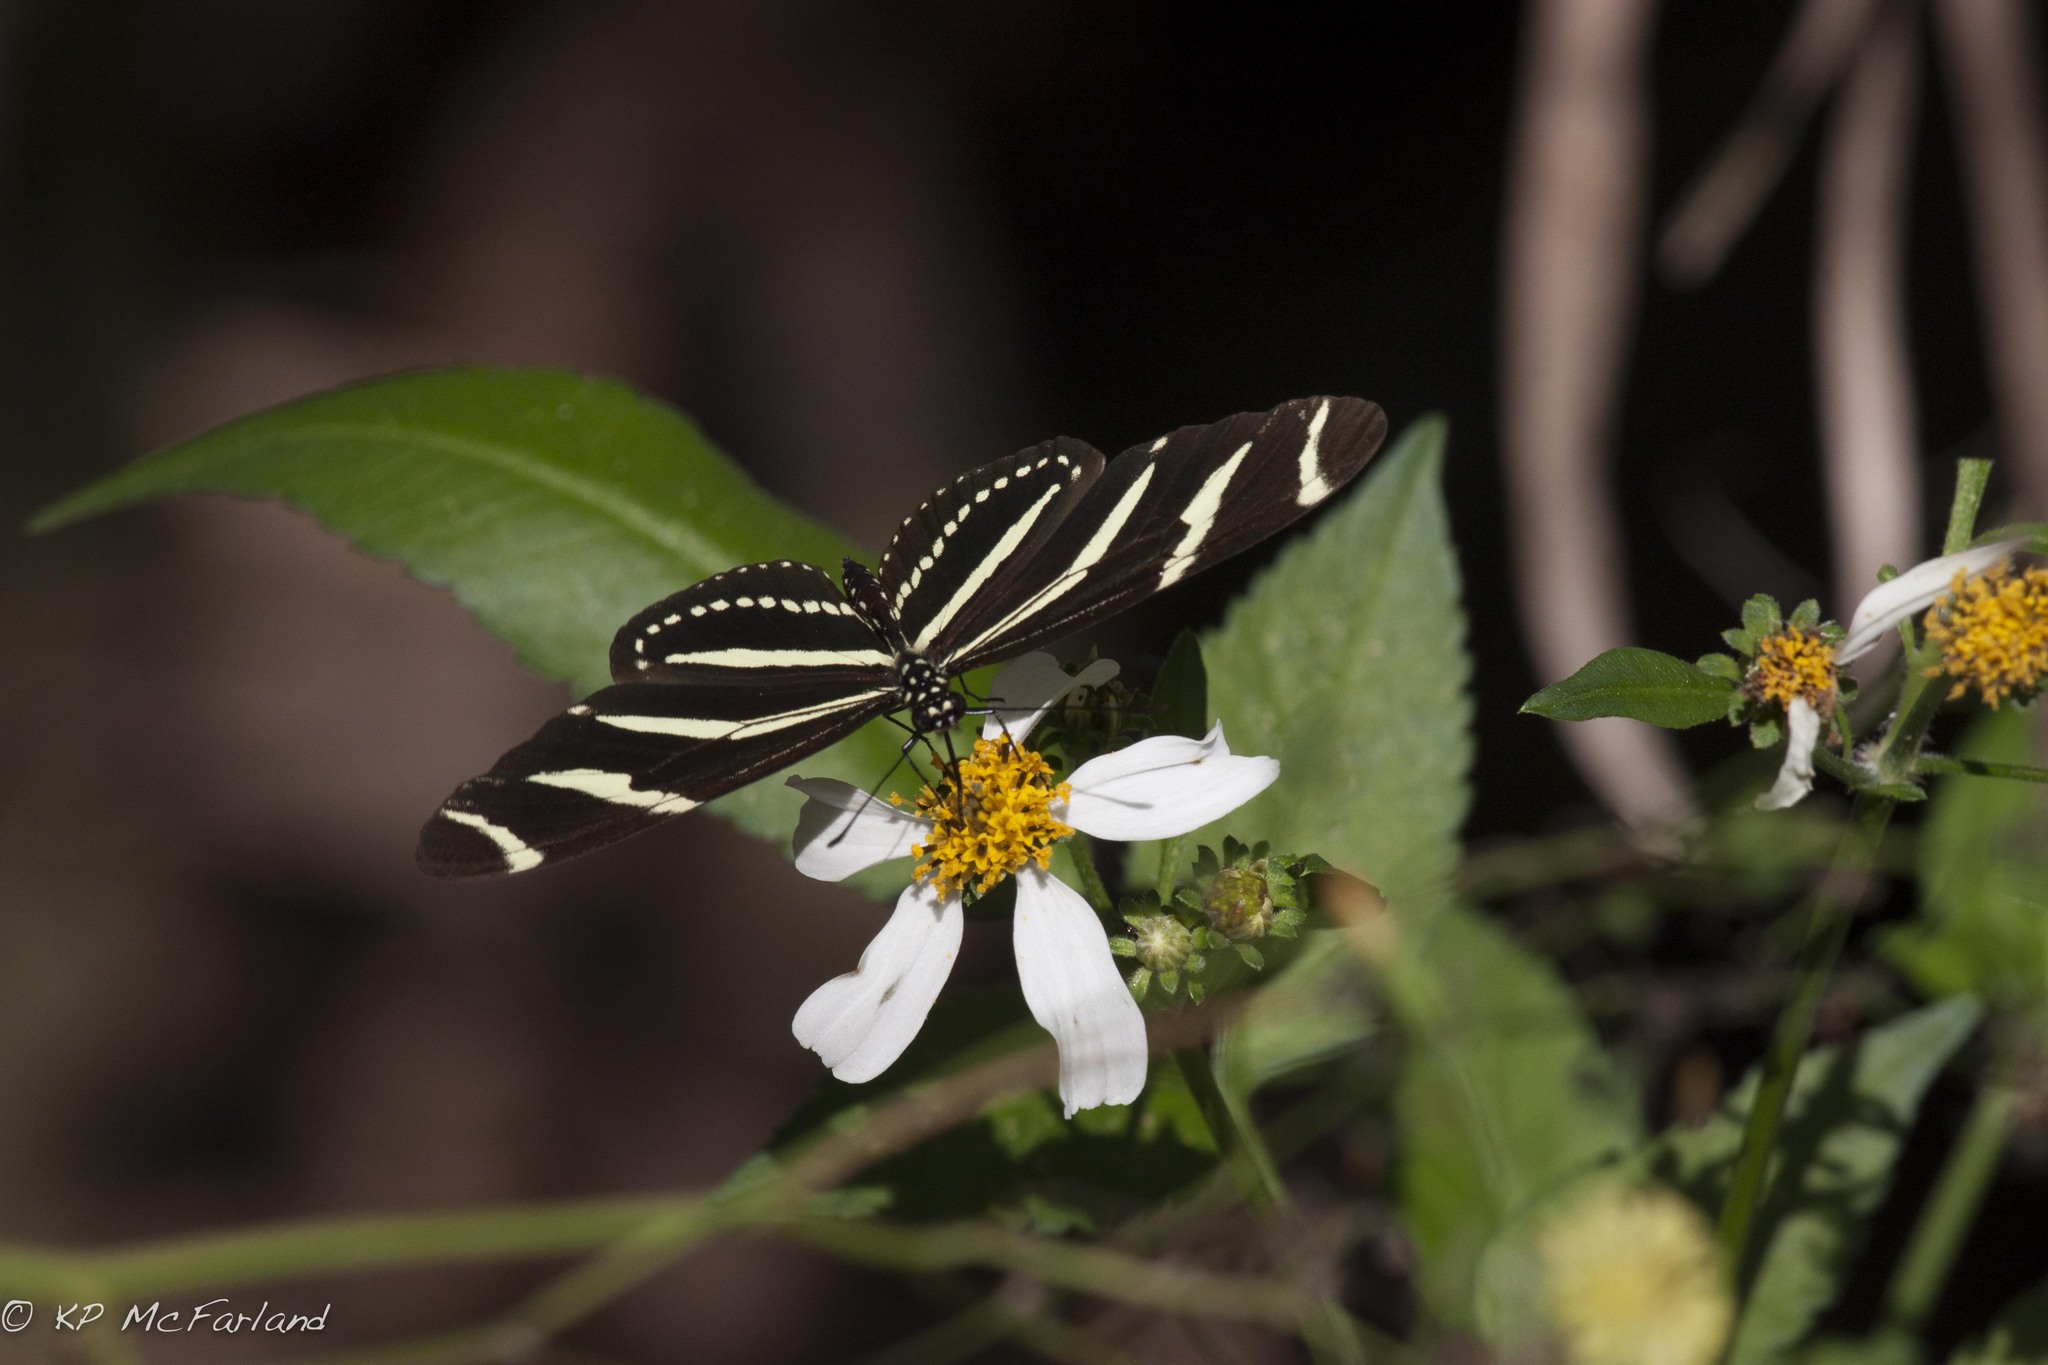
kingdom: Animalia
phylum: Arthropoda
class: Insecta
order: Lepidoptera
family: Nymphalidae
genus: Heliconius
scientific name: Heliconius charithonia
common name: Zebra long wing
